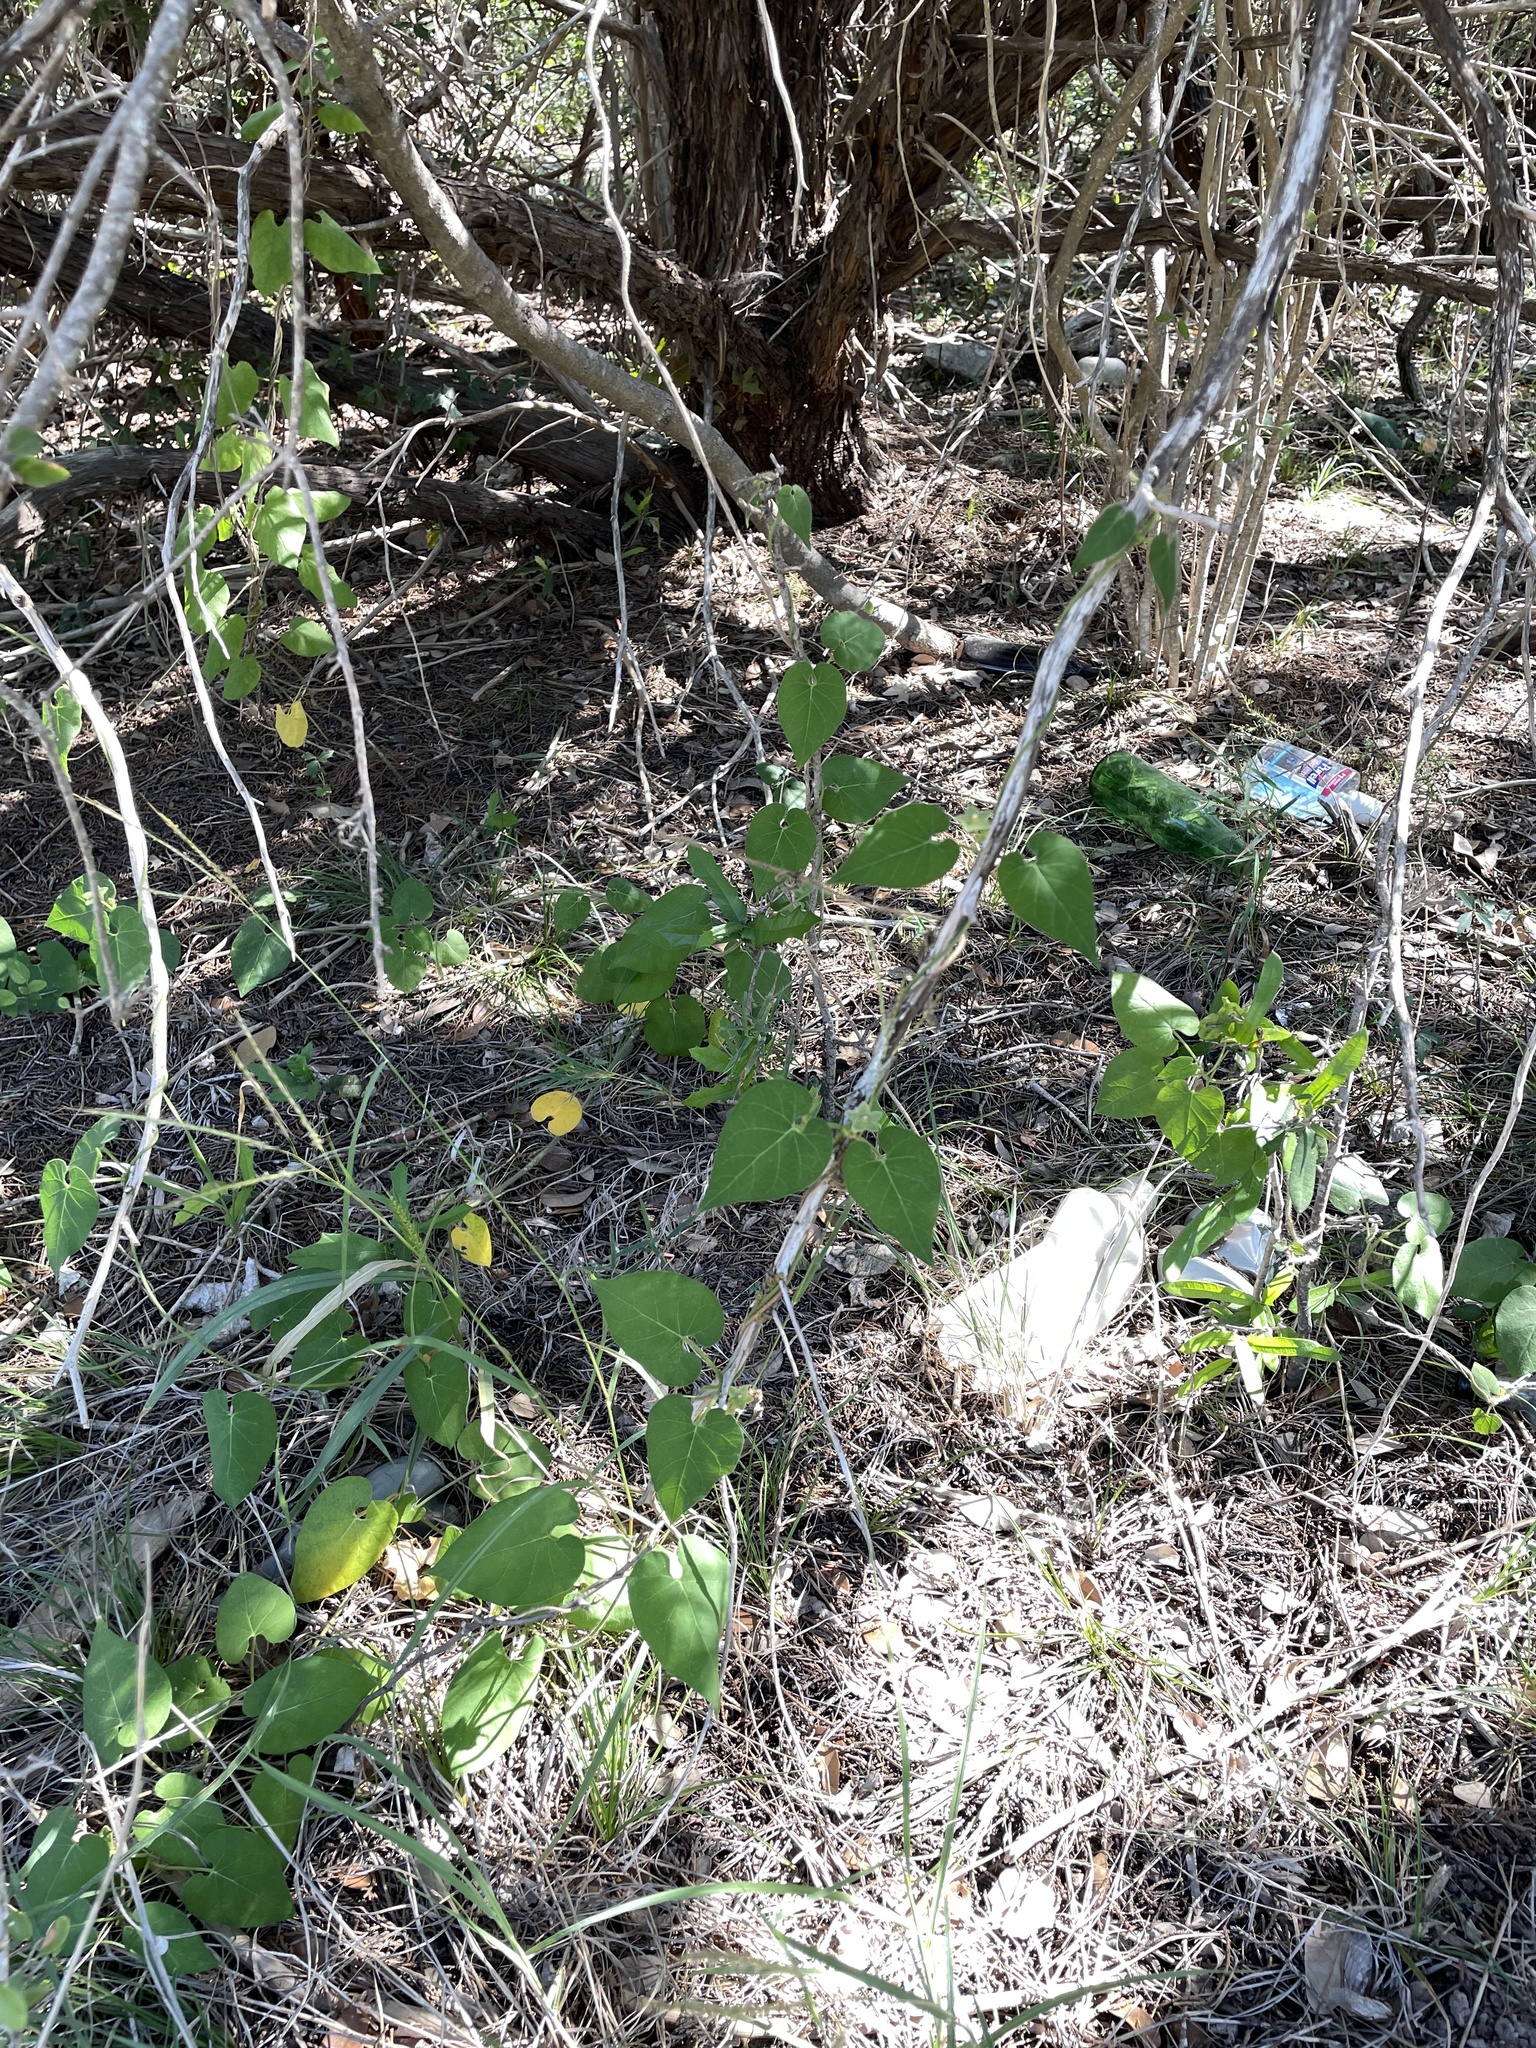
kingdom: Plantae
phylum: Tracheophyta
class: Magnoliopsida
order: Gentianales
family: Apocynaceae
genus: Dictyanthus
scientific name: Dictyanthus reticulatus
